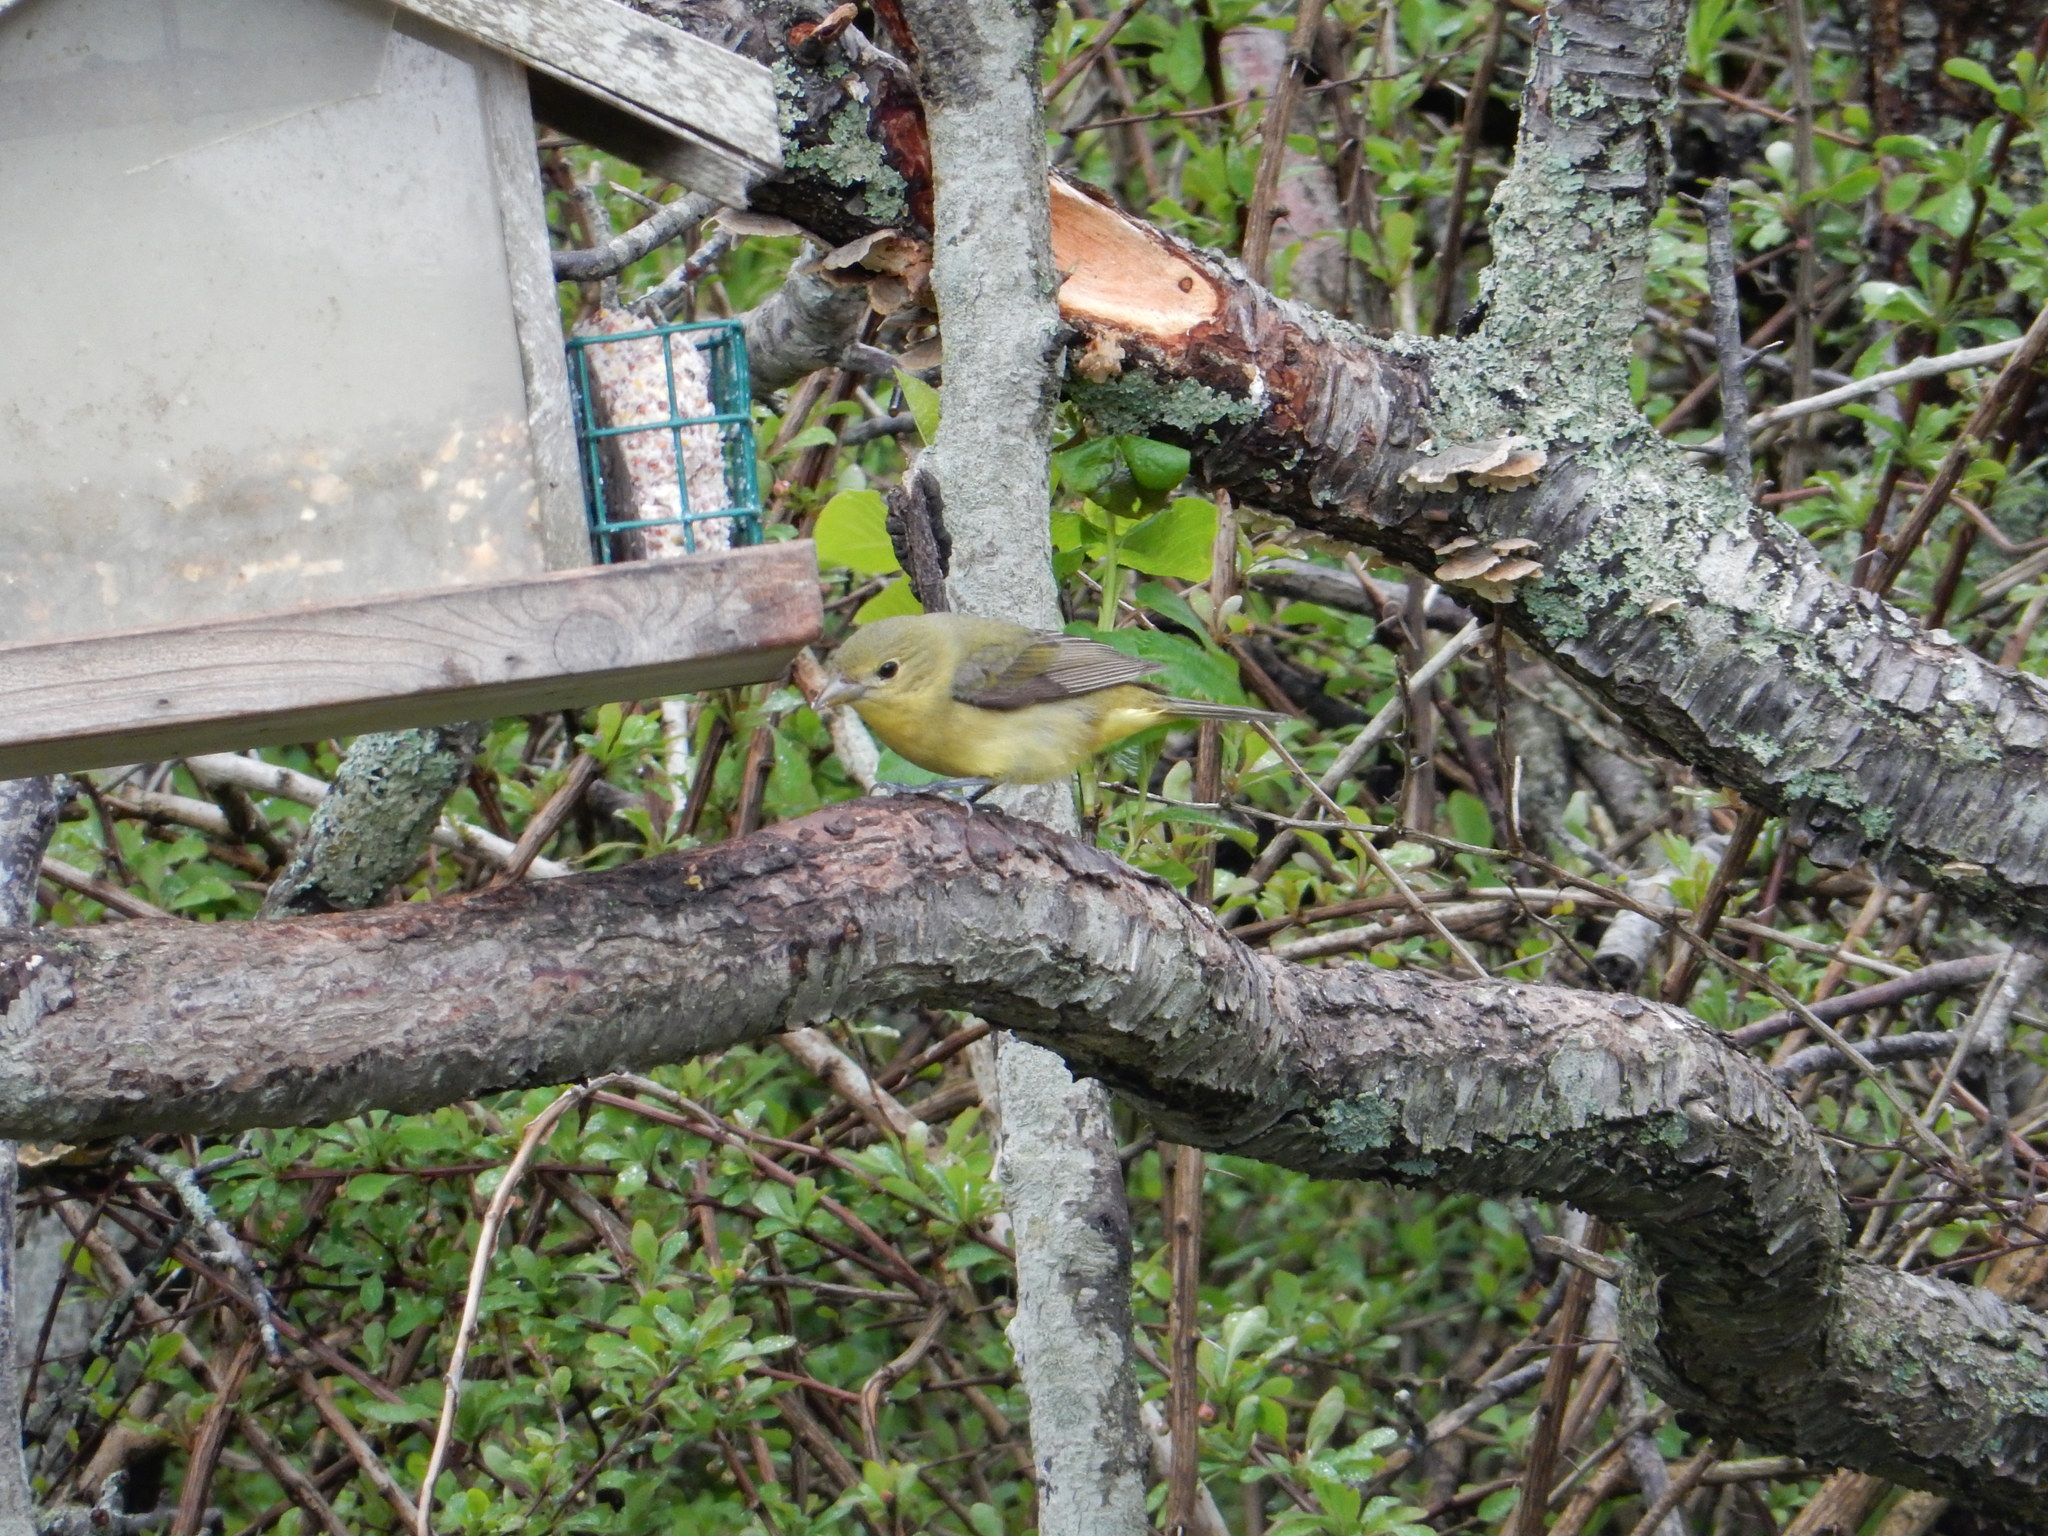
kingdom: Animalia
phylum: Chordata
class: Aves
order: Passeriformes
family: Cardinalidae
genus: Piranga
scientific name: Piranga olivacea
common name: Scarlet tanager
